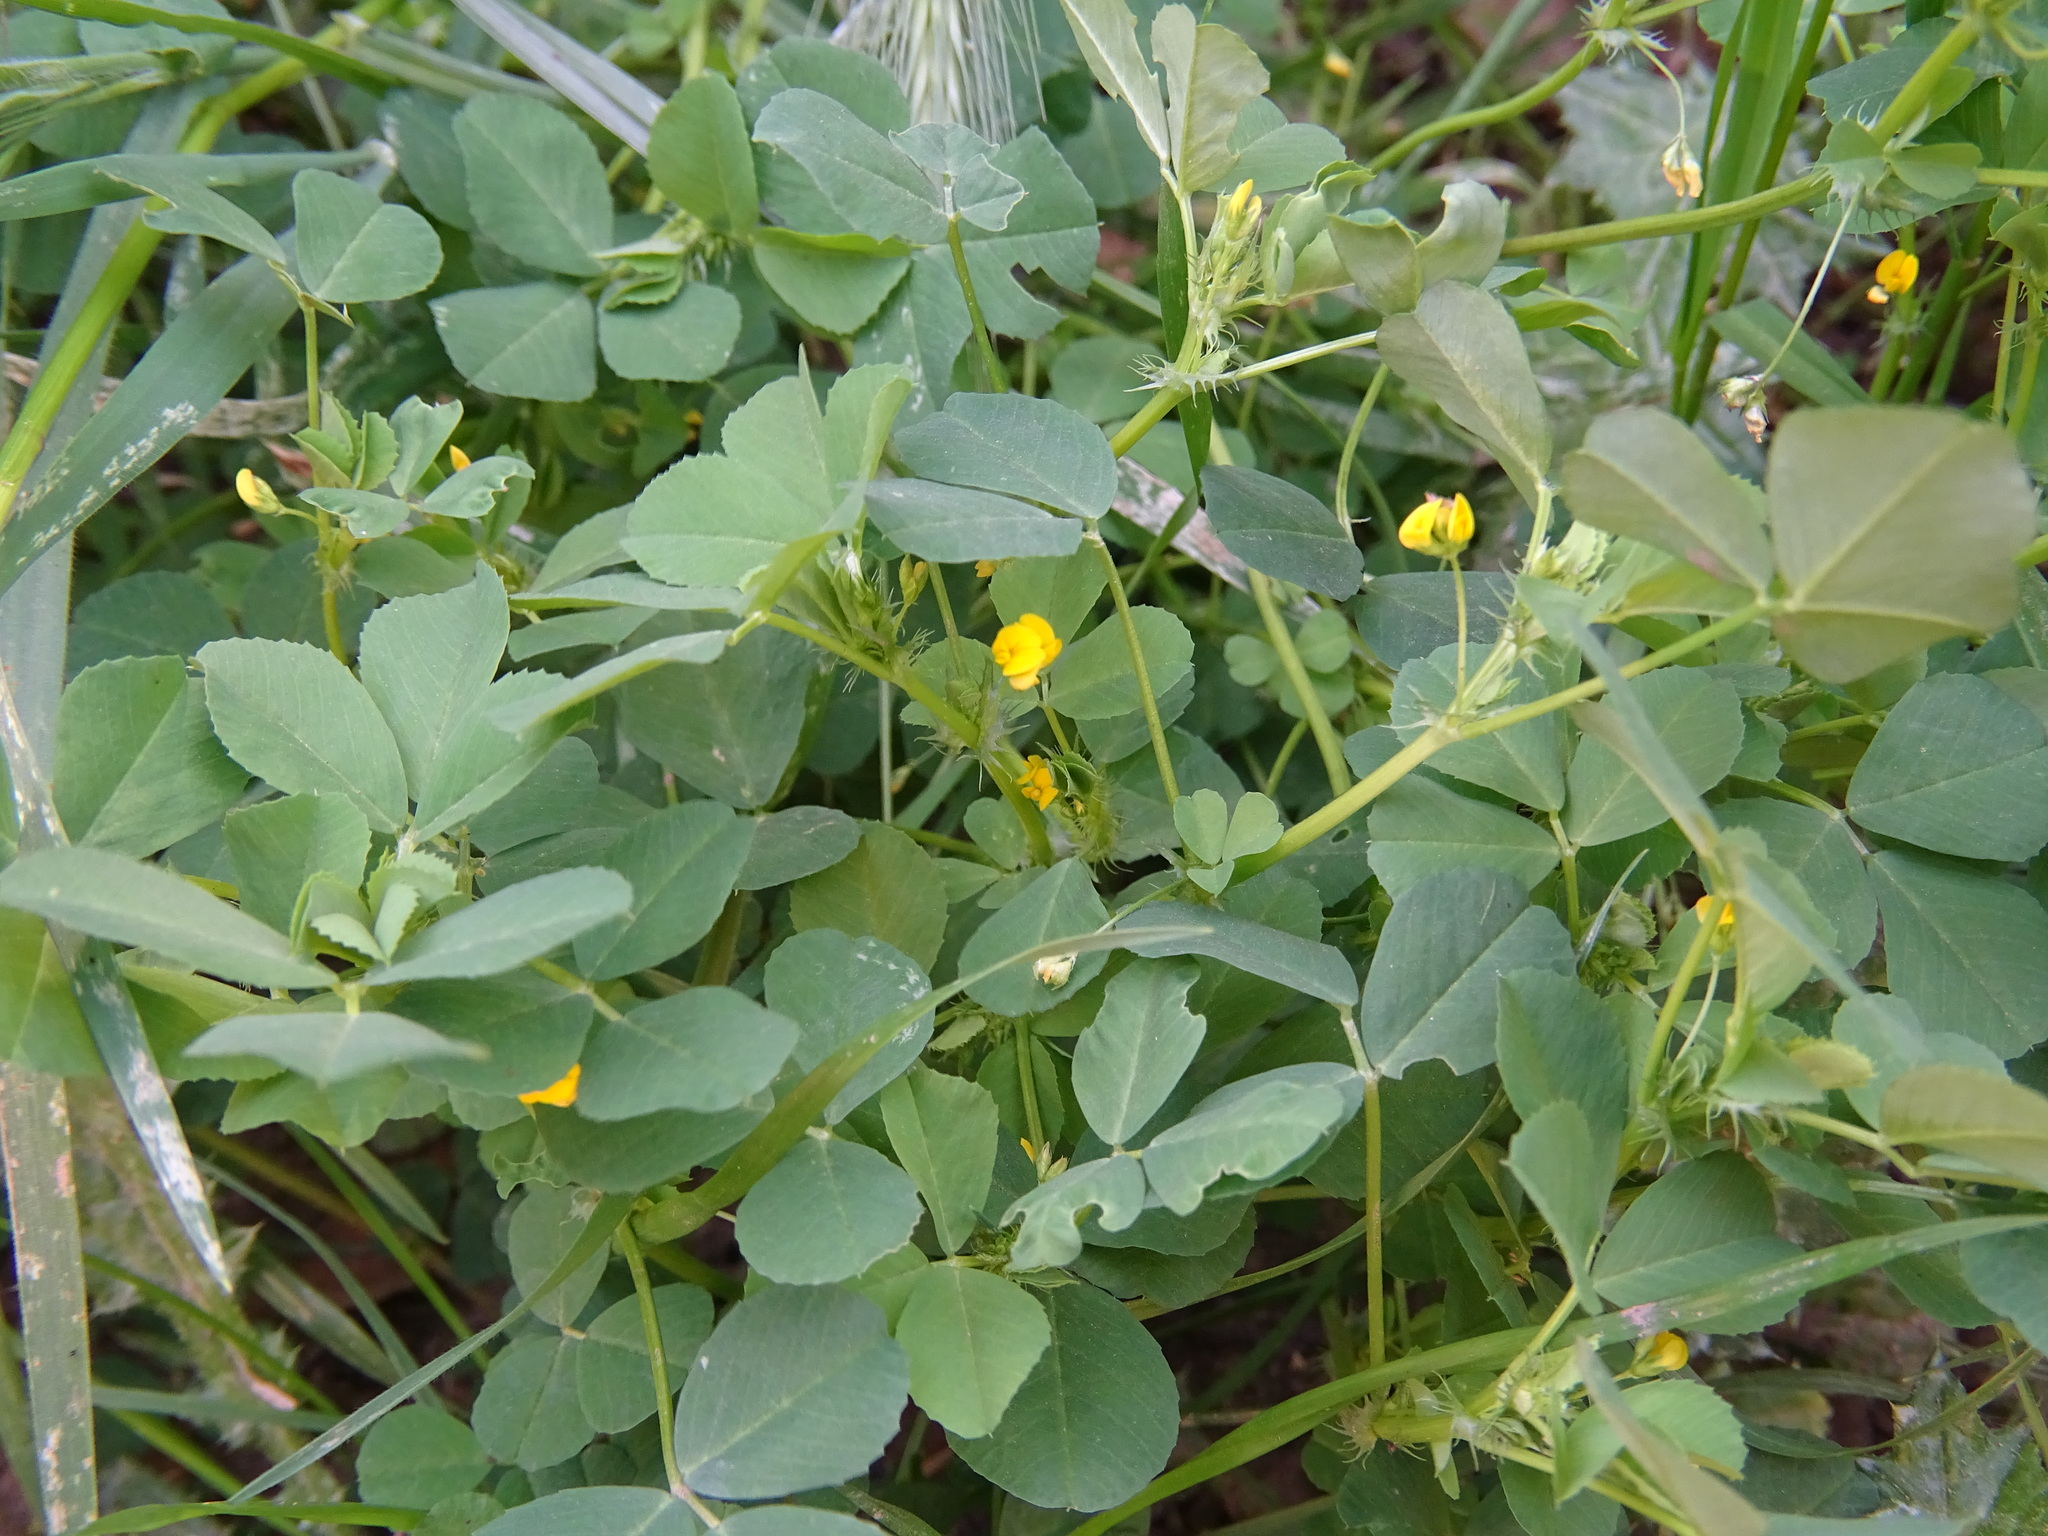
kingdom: Plantae
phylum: Tracheophyta
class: Magnoliopsida
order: Fabales
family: Fabaceae
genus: Medicago
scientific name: Medicago polymorpha
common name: Burclover
